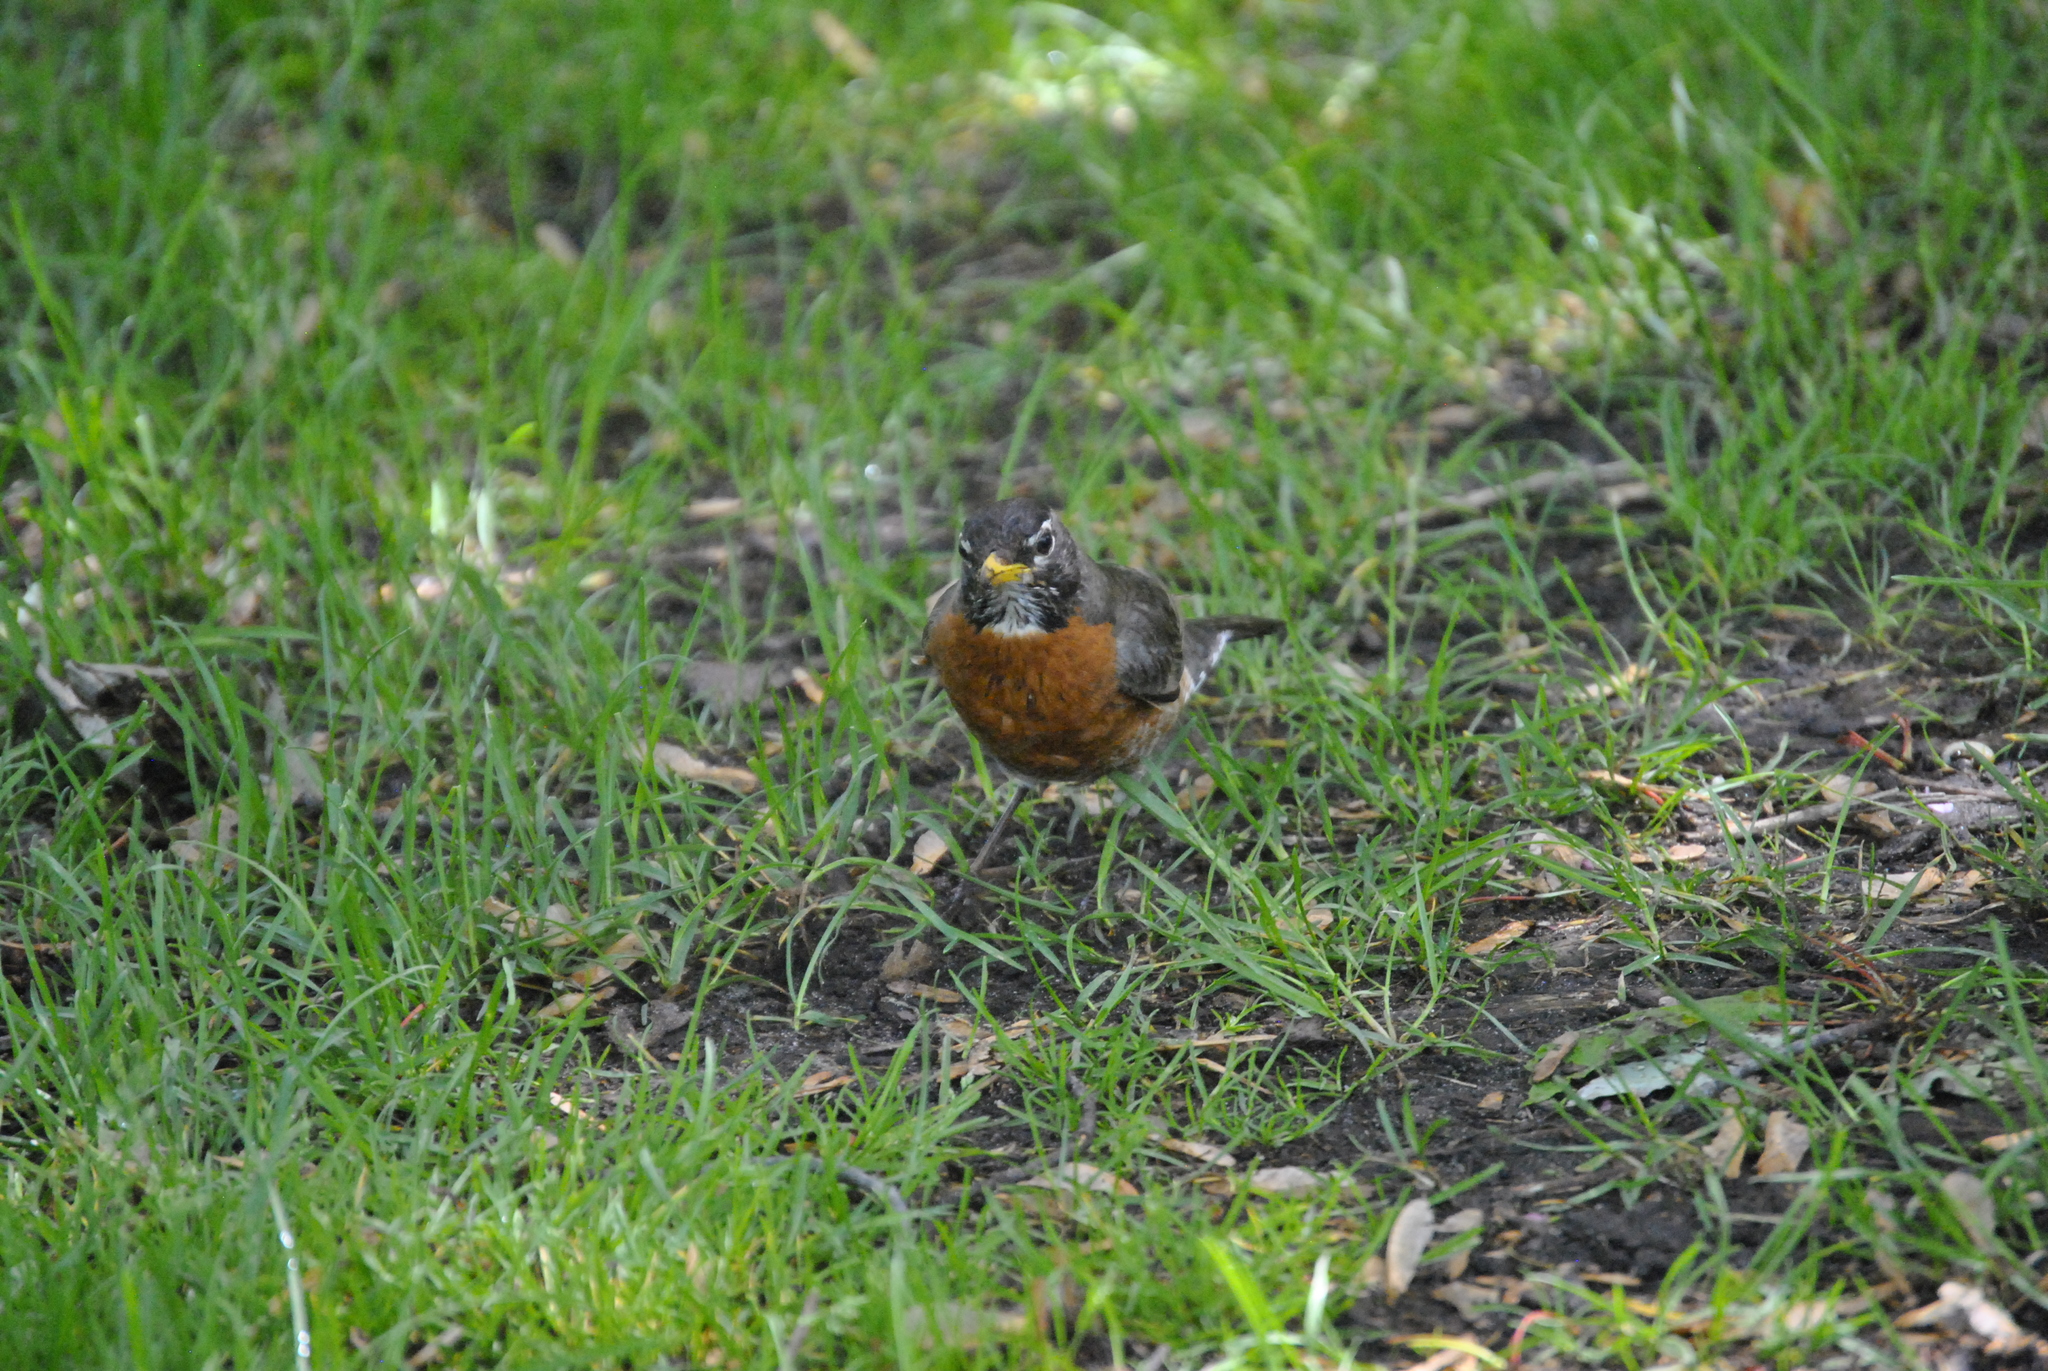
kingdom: Animalia
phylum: Chordata
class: Aves
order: Passeriformes
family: Turdidae
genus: Turdus
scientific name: Turdus migratorius
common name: American robin
